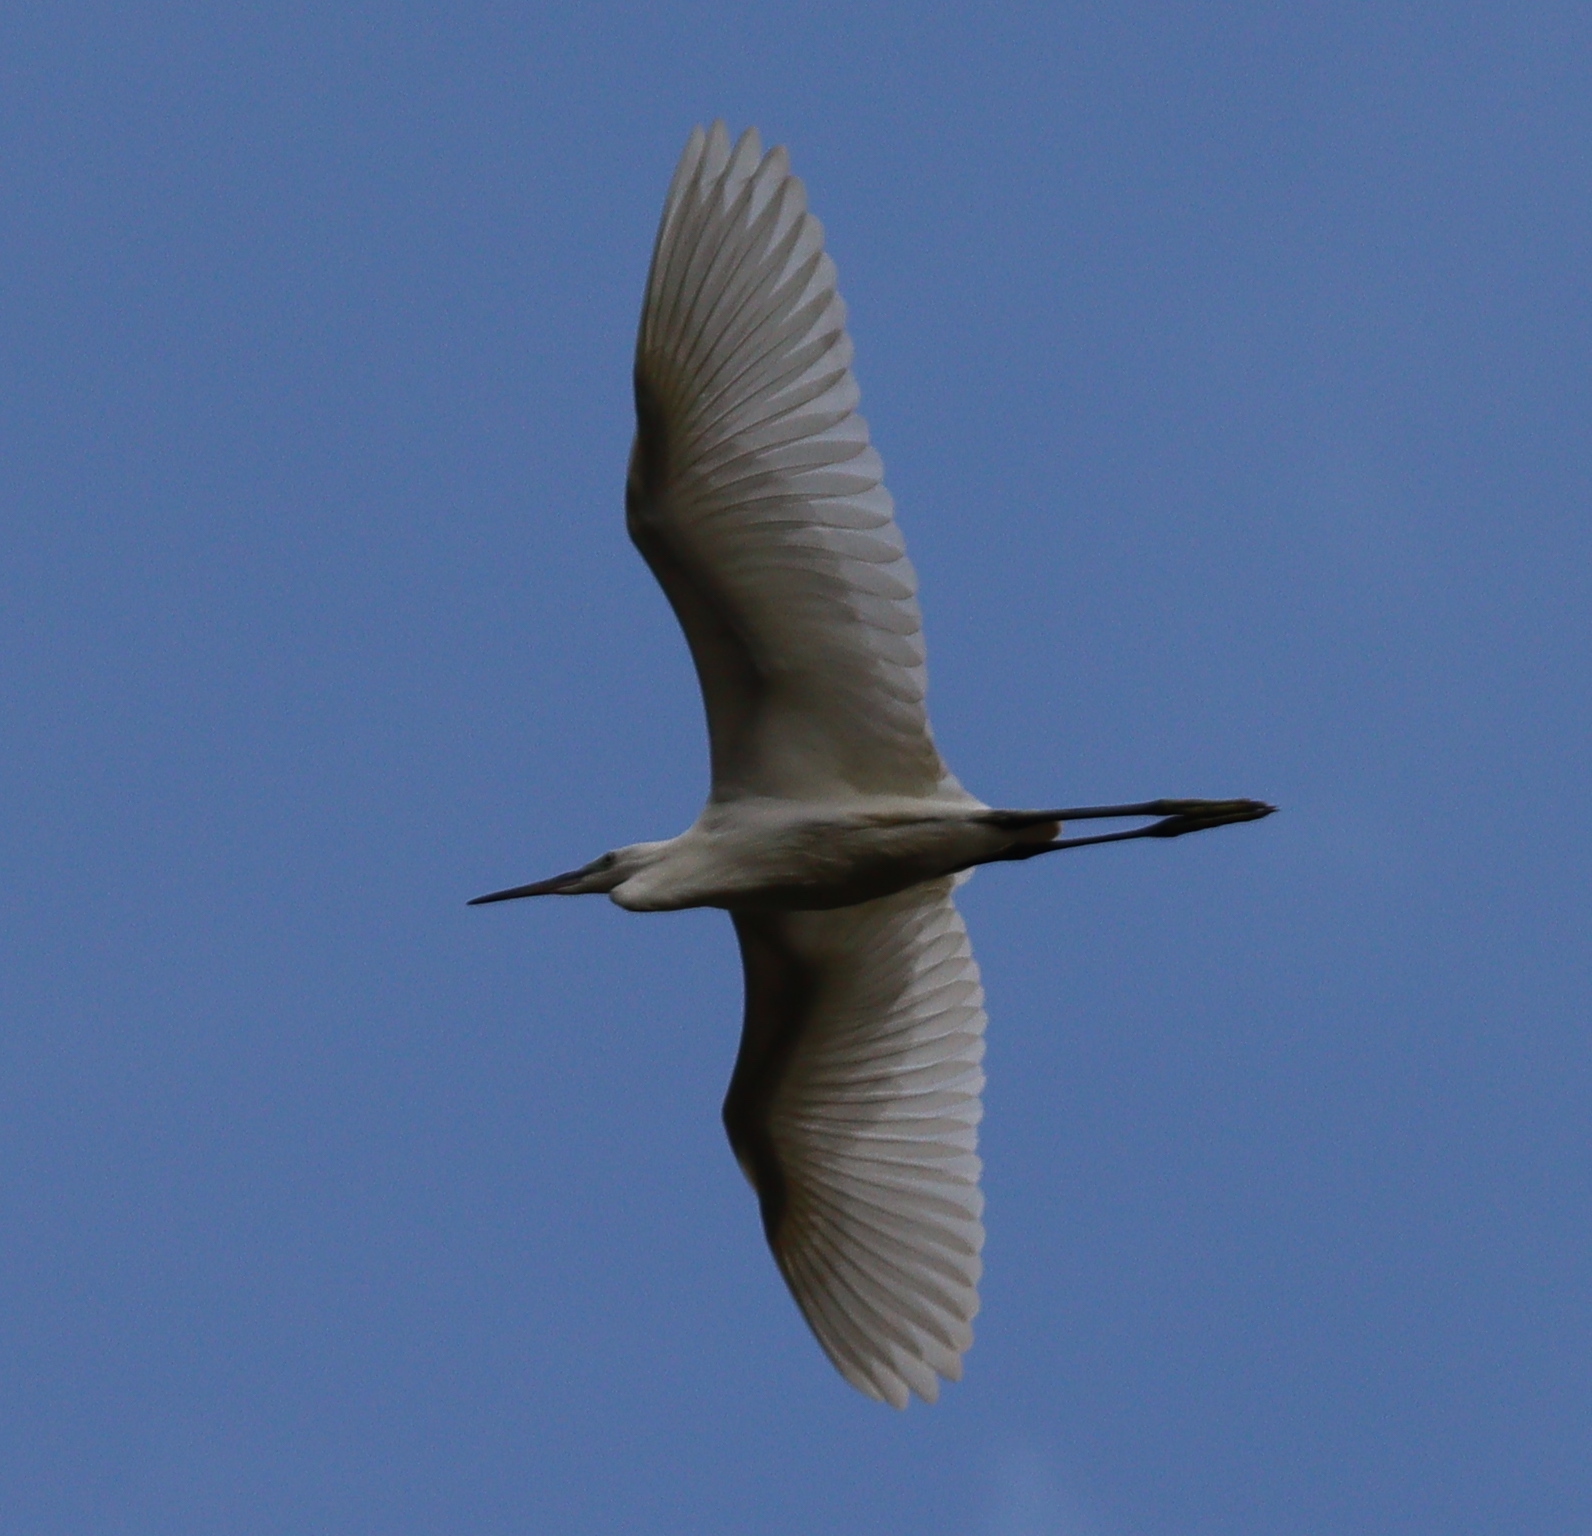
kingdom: Animalia
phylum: Chordata
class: Aves
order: Pelecaniformes
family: Ardeidae
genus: Egretta
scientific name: Egretta garzetta
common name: Little egret
